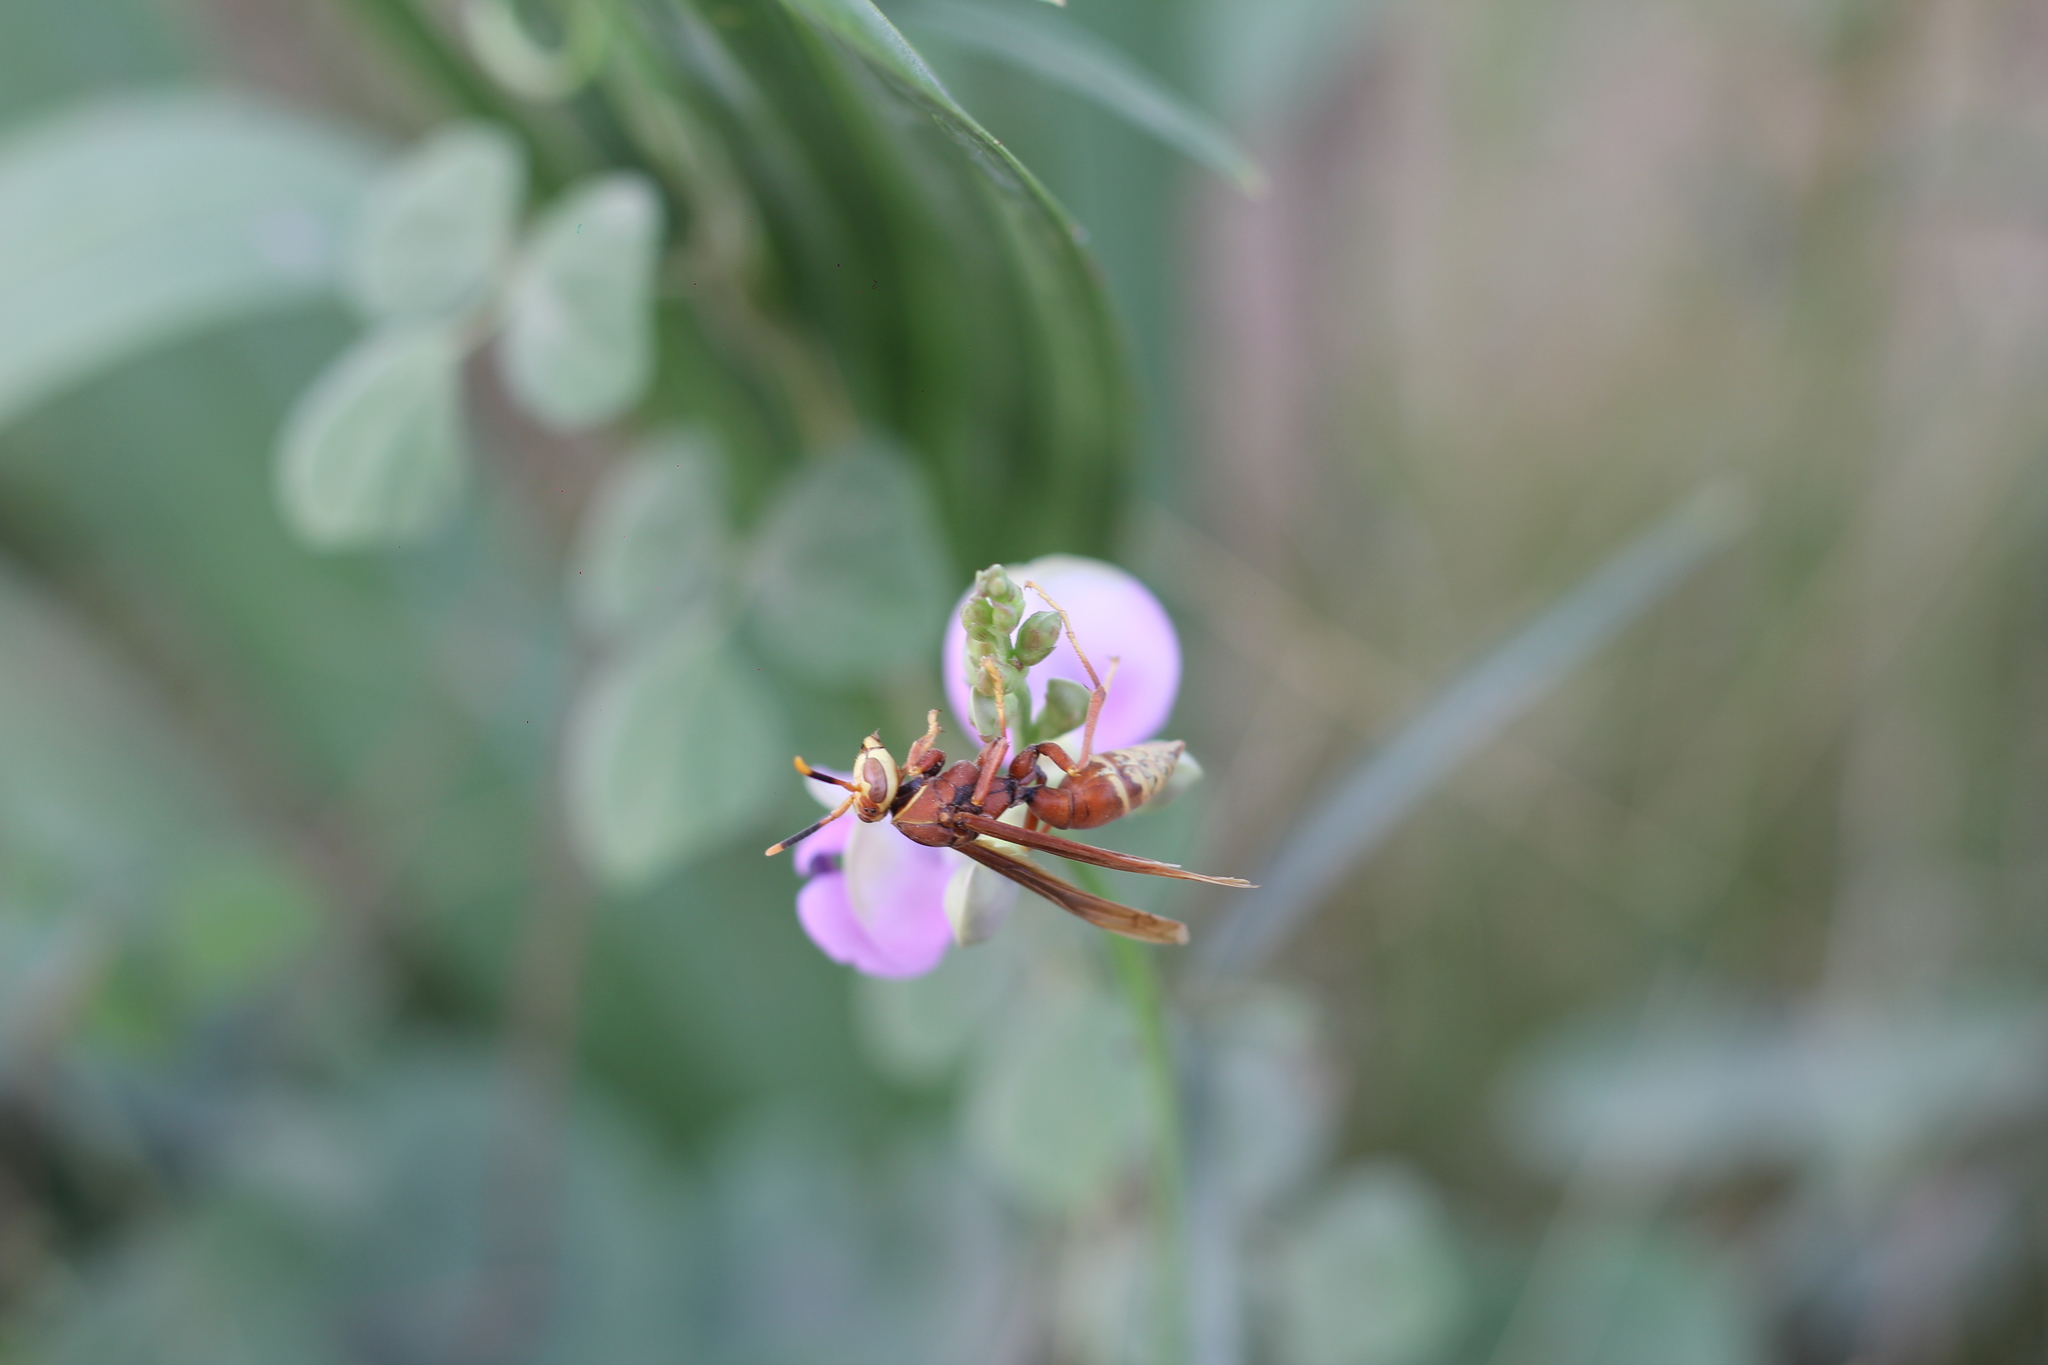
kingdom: Animalia
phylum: Arthropoda
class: Insecta
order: Hymenoptera
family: Eumenidae
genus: Polistes
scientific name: Polistes cavapyta
